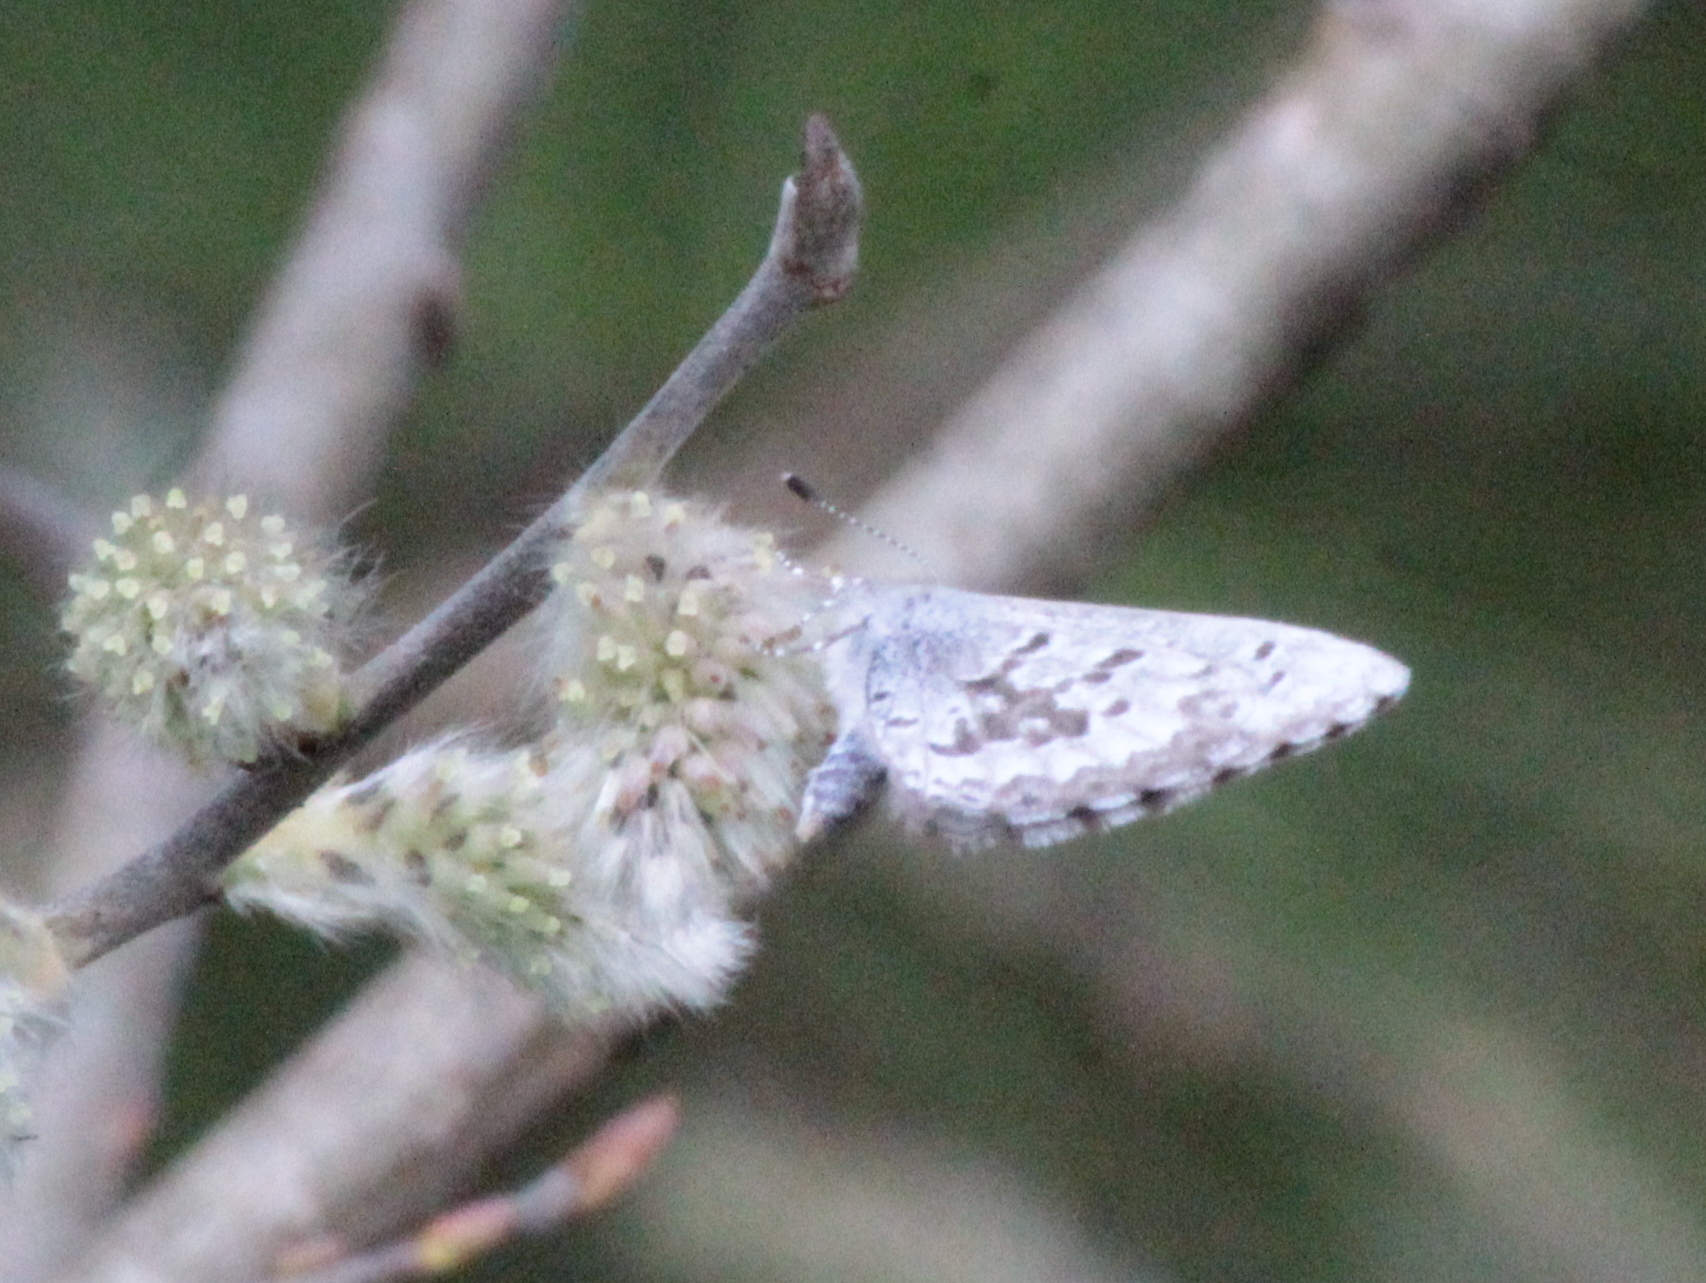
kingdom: Animalia
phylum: Arthropoda
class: Insecta
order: Lepidoptera
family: Lycaenidae
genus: Celastrina
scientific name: Celastrina lucia
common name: Lucia azure
